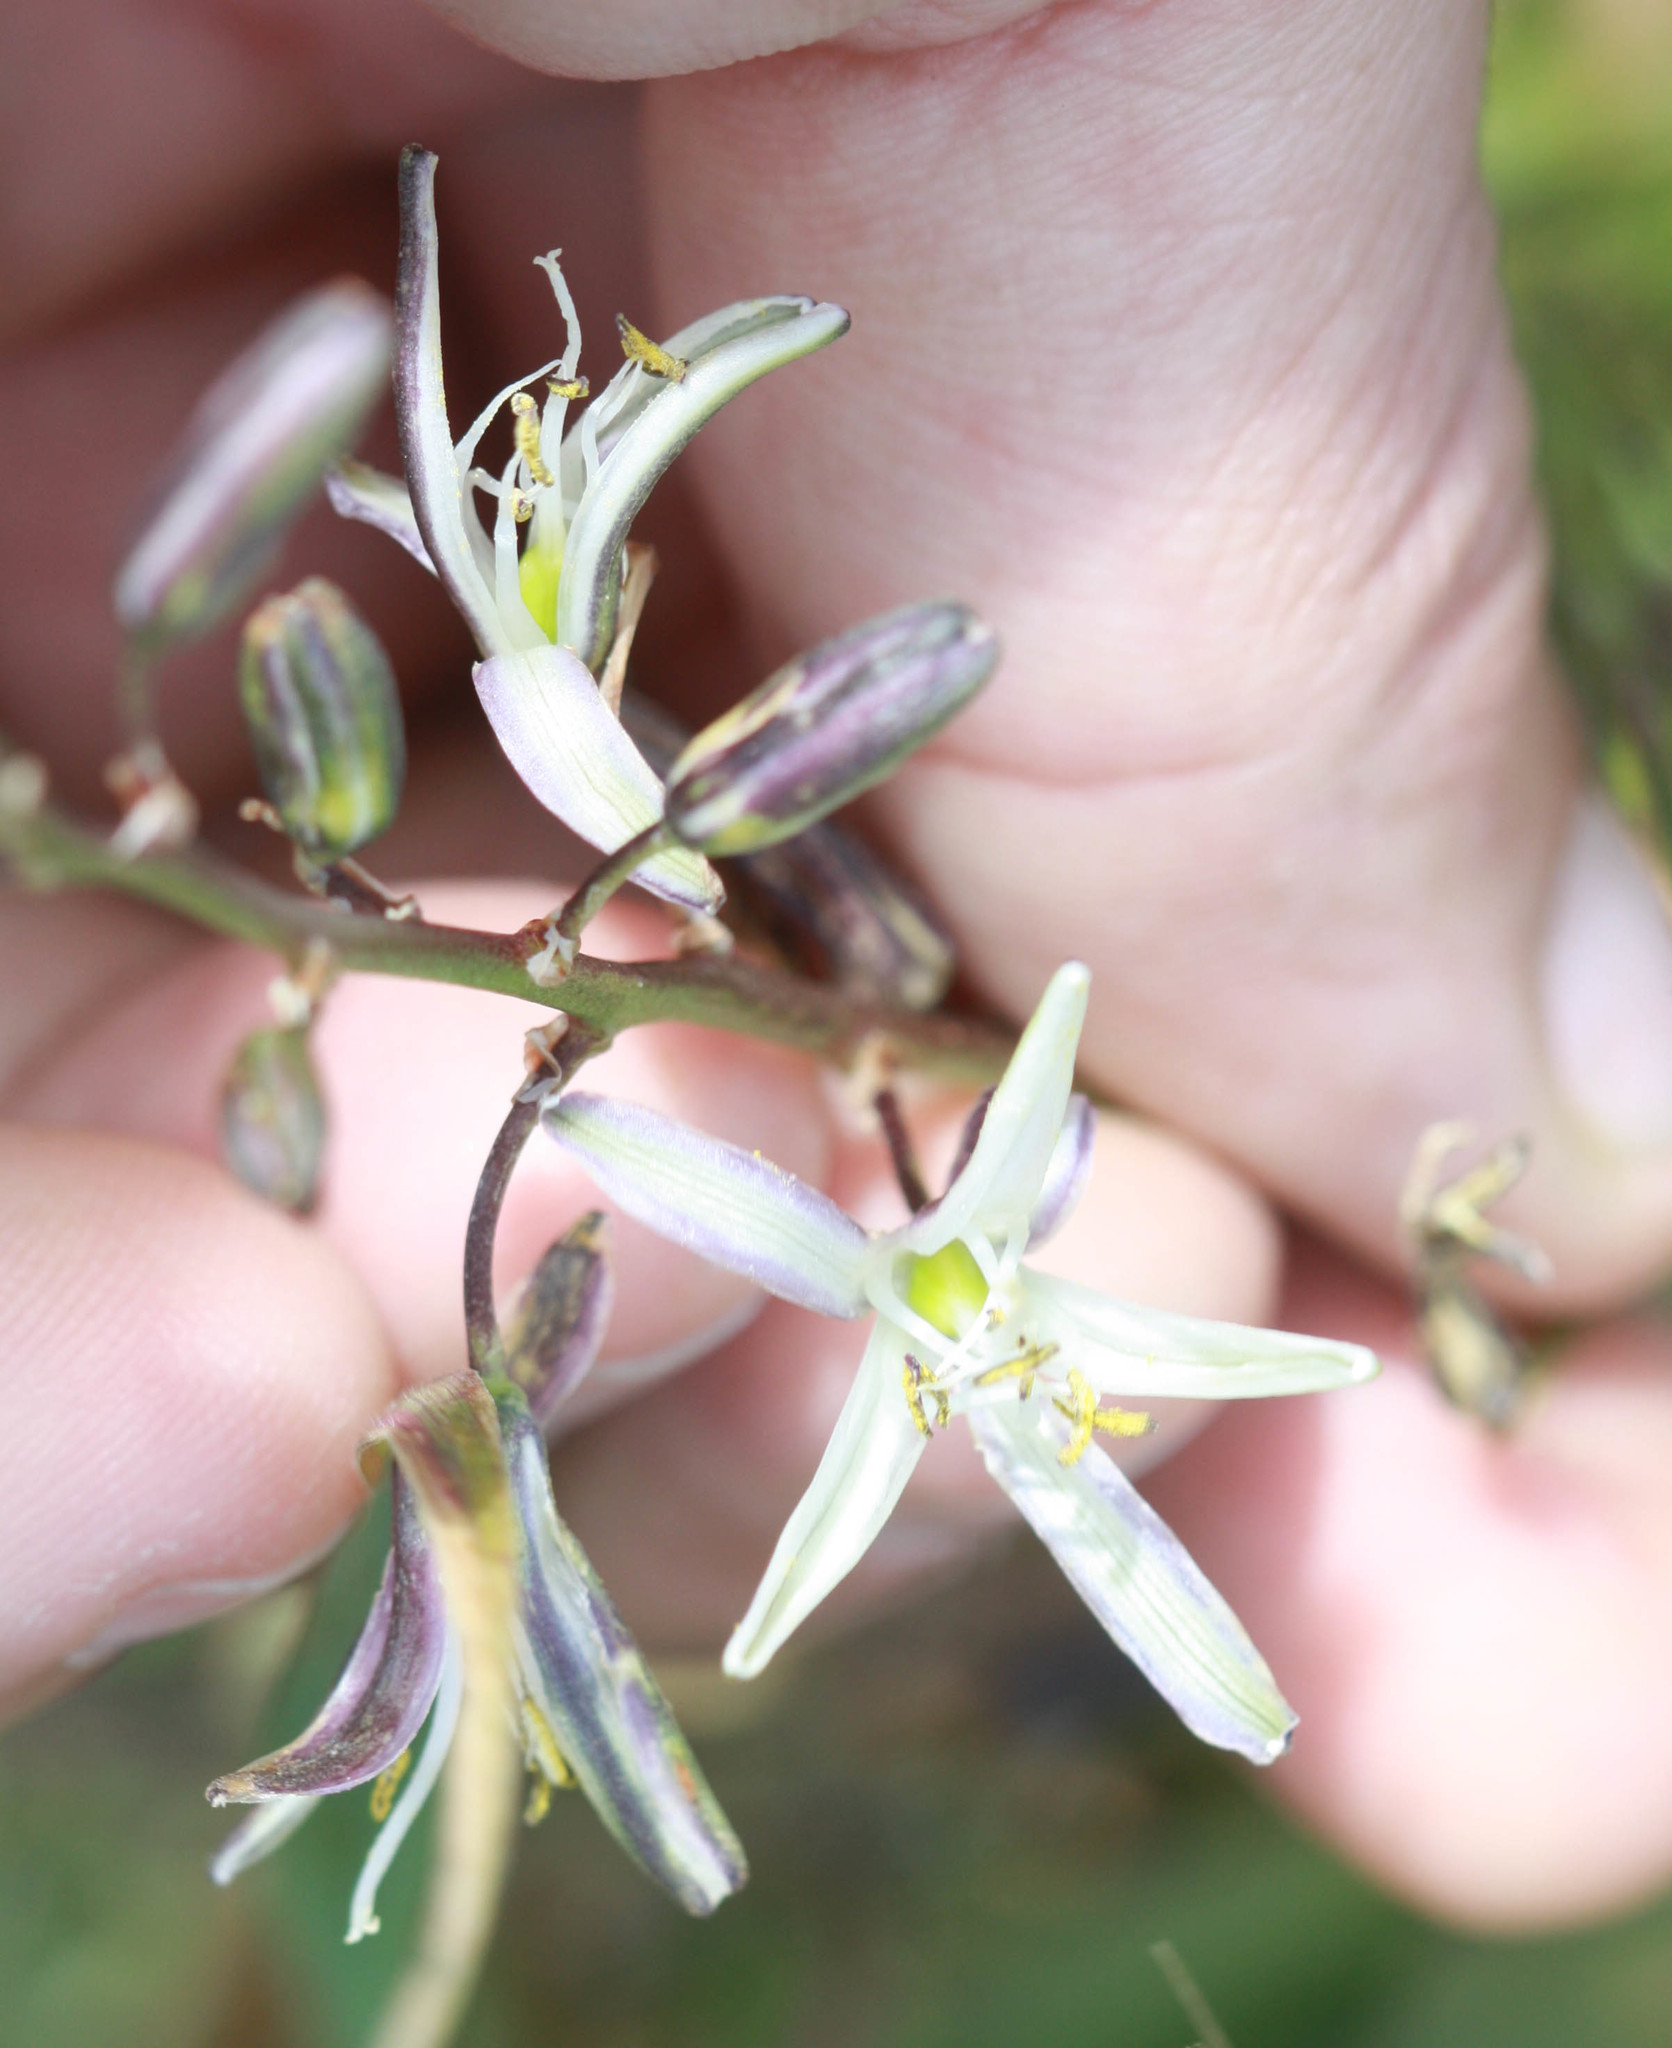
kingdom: Plantae
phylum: Tracheophyta
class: Liliopsida
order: Asparagales
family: Asparagaceae
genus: Chlorogalum
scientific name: Chlorogalum pomeridianum
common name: Amole
